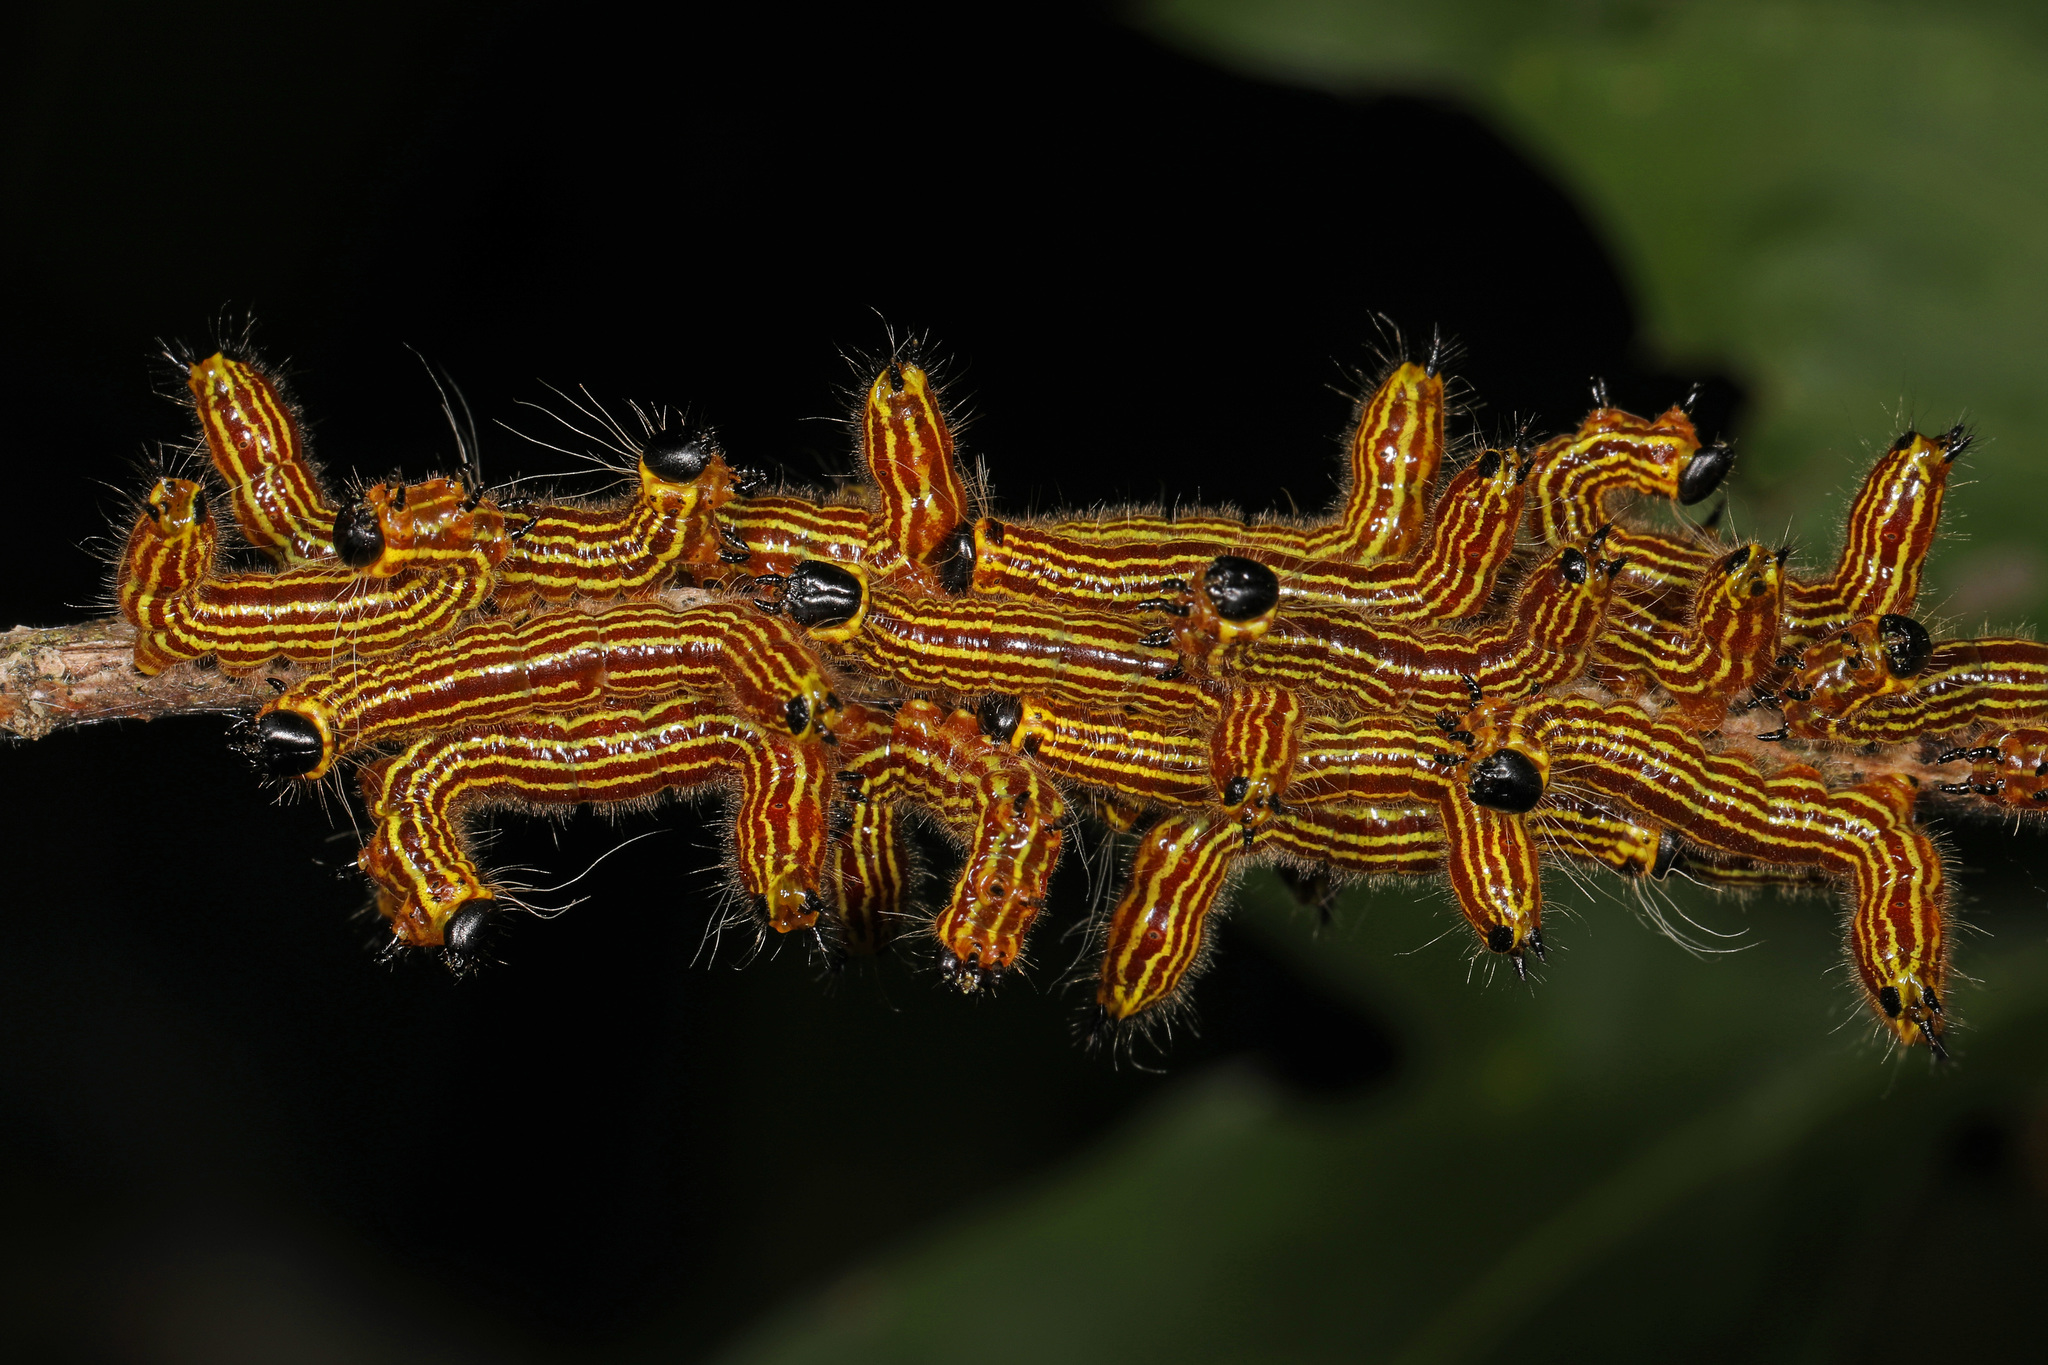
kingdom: Animalia
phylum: Arthropoda
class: Insecta
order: Lepidoptera
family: Notodontidae
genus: Datana
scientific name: Datana ministra
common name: Yellow-necked caterpillar moth
